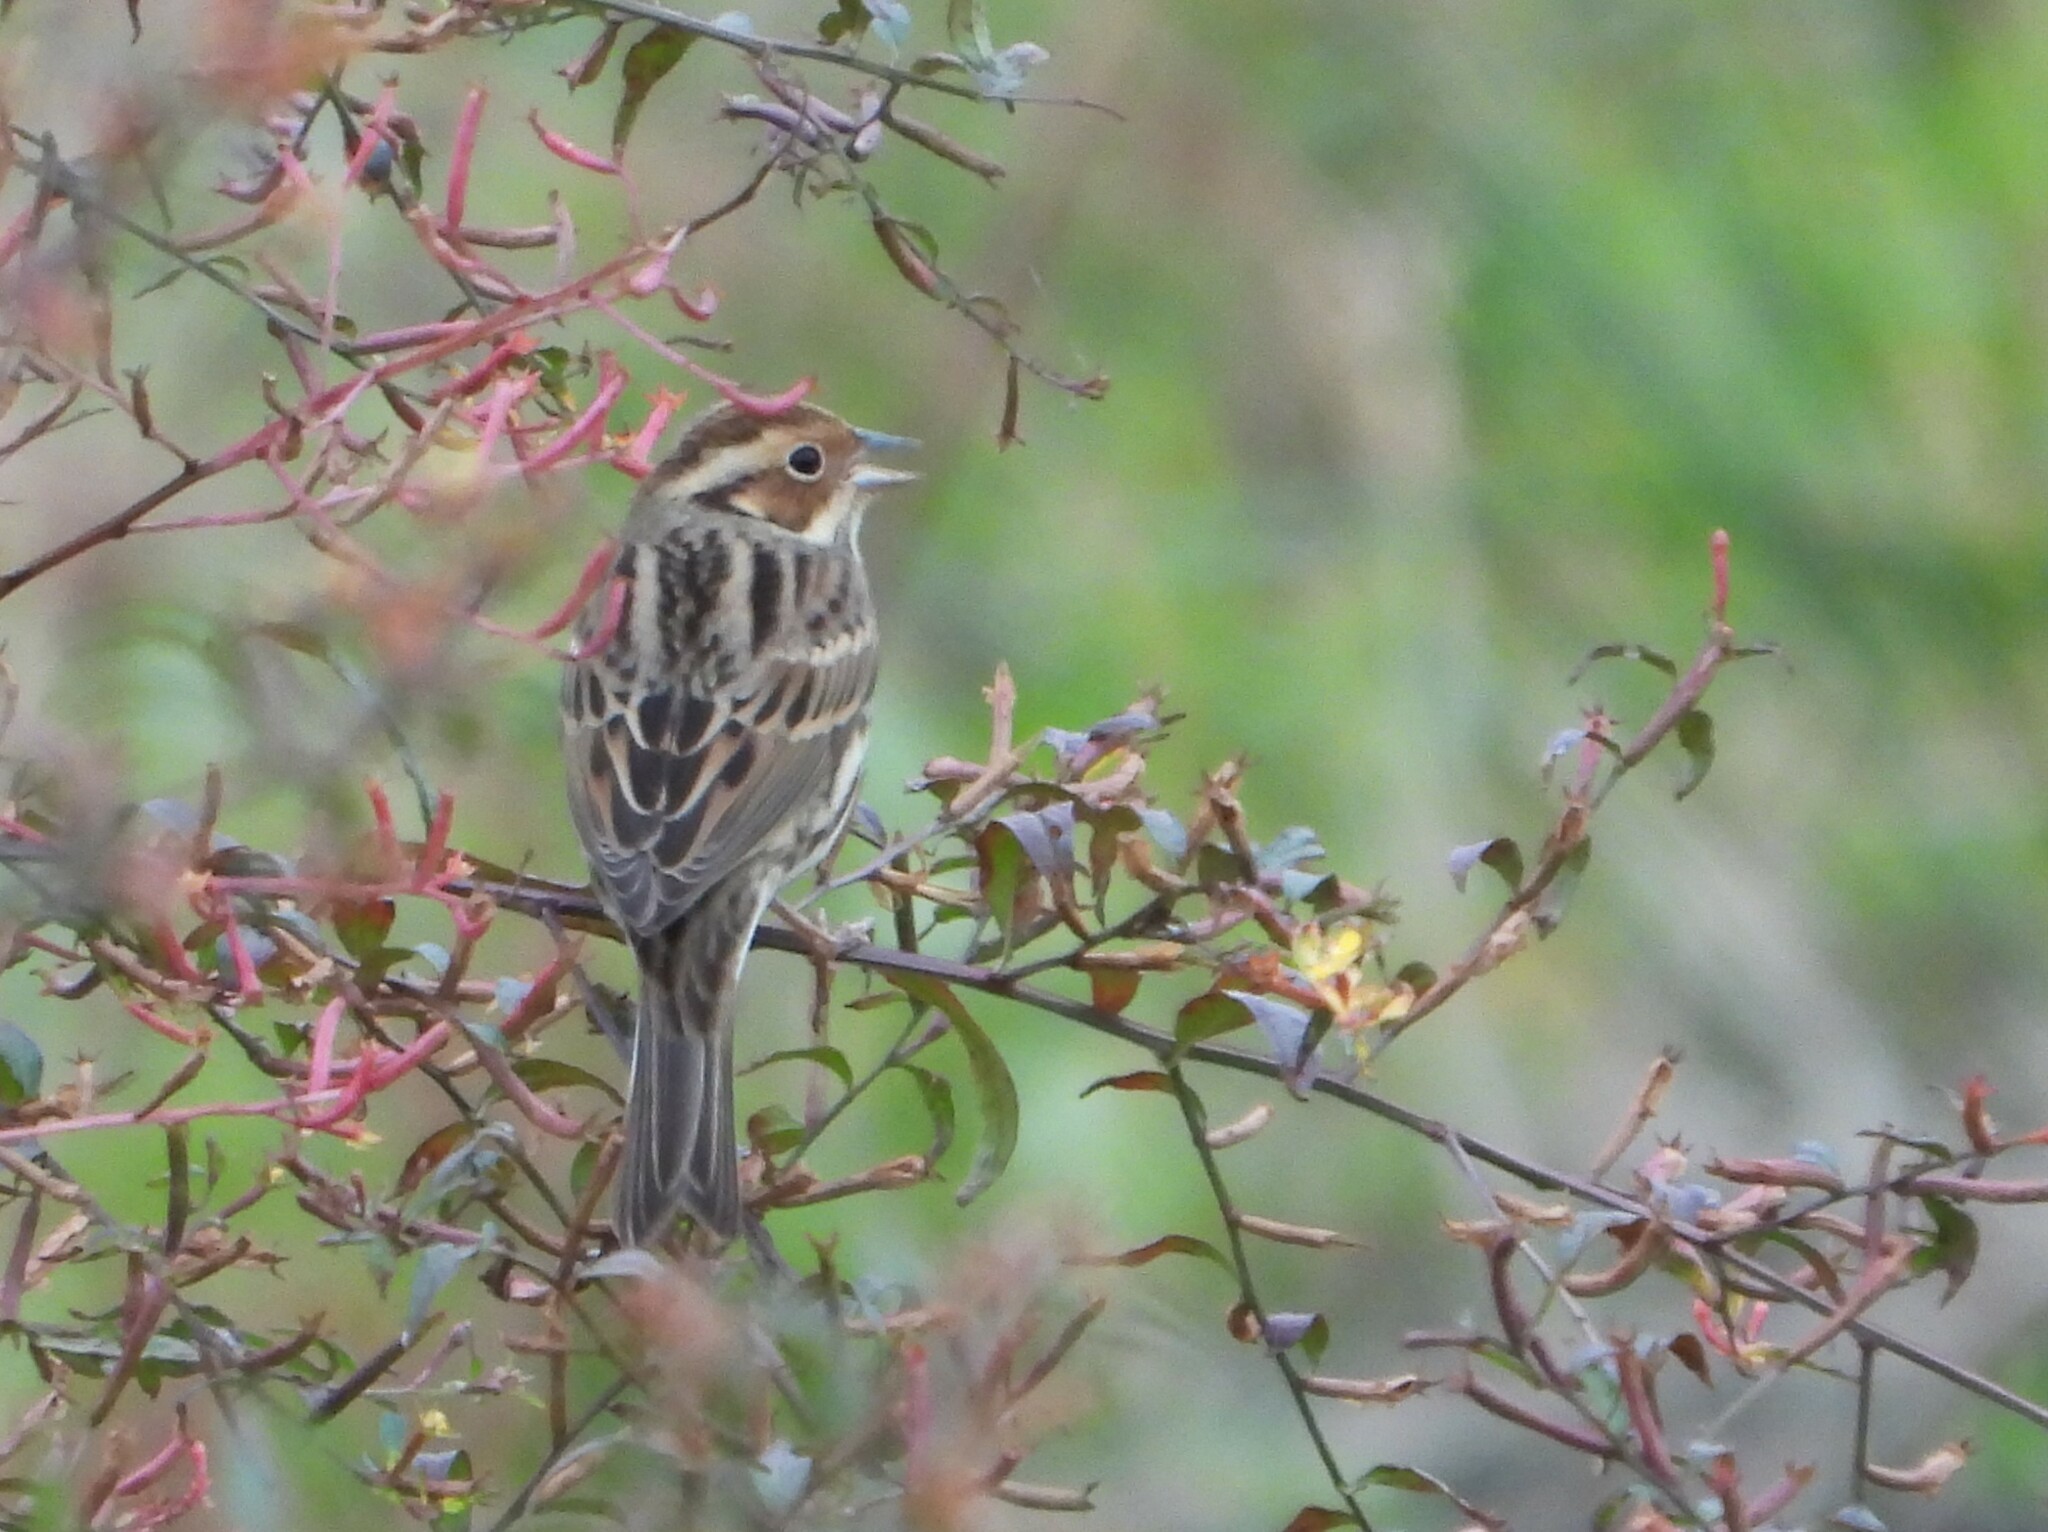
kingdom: Animalia
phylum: Chordata
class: Aves
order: Passeriformes
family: Emberizidae
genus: Emberiza
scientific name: Emberiza pusilla
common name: Little bunting
